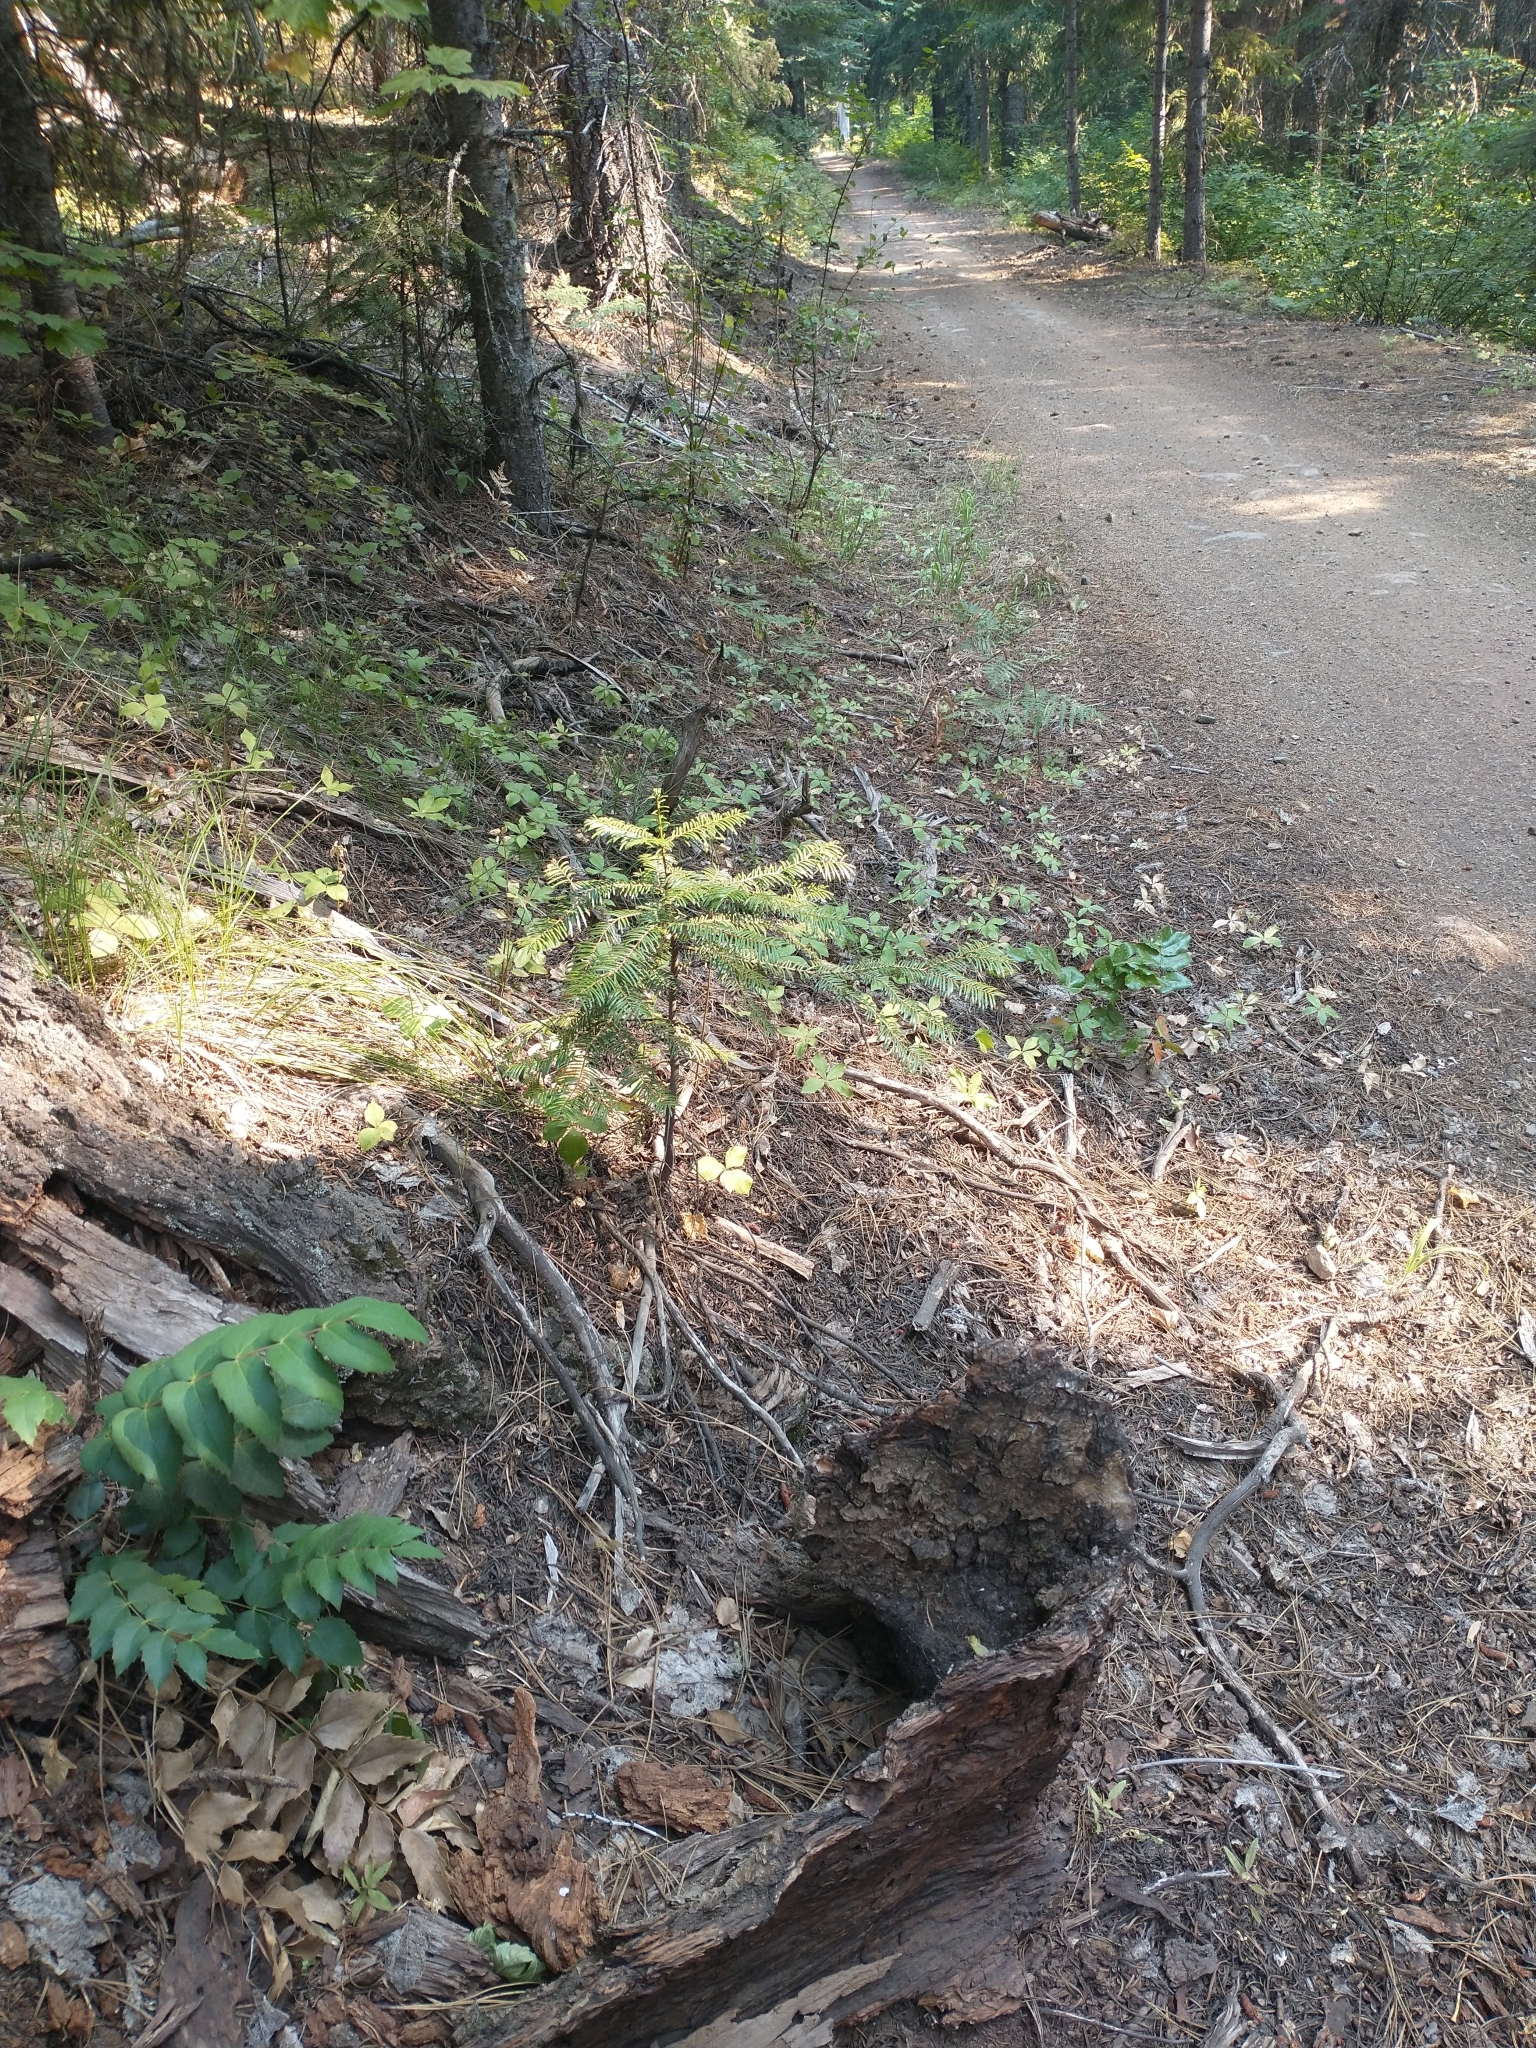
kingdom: Plantae
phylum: Tracheophyta
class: Magnoliopsida
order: Ranunculales
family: Berberidaceae
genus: Mahonia
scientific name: Mahonia nervosa
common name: Cascade oregon-grape
